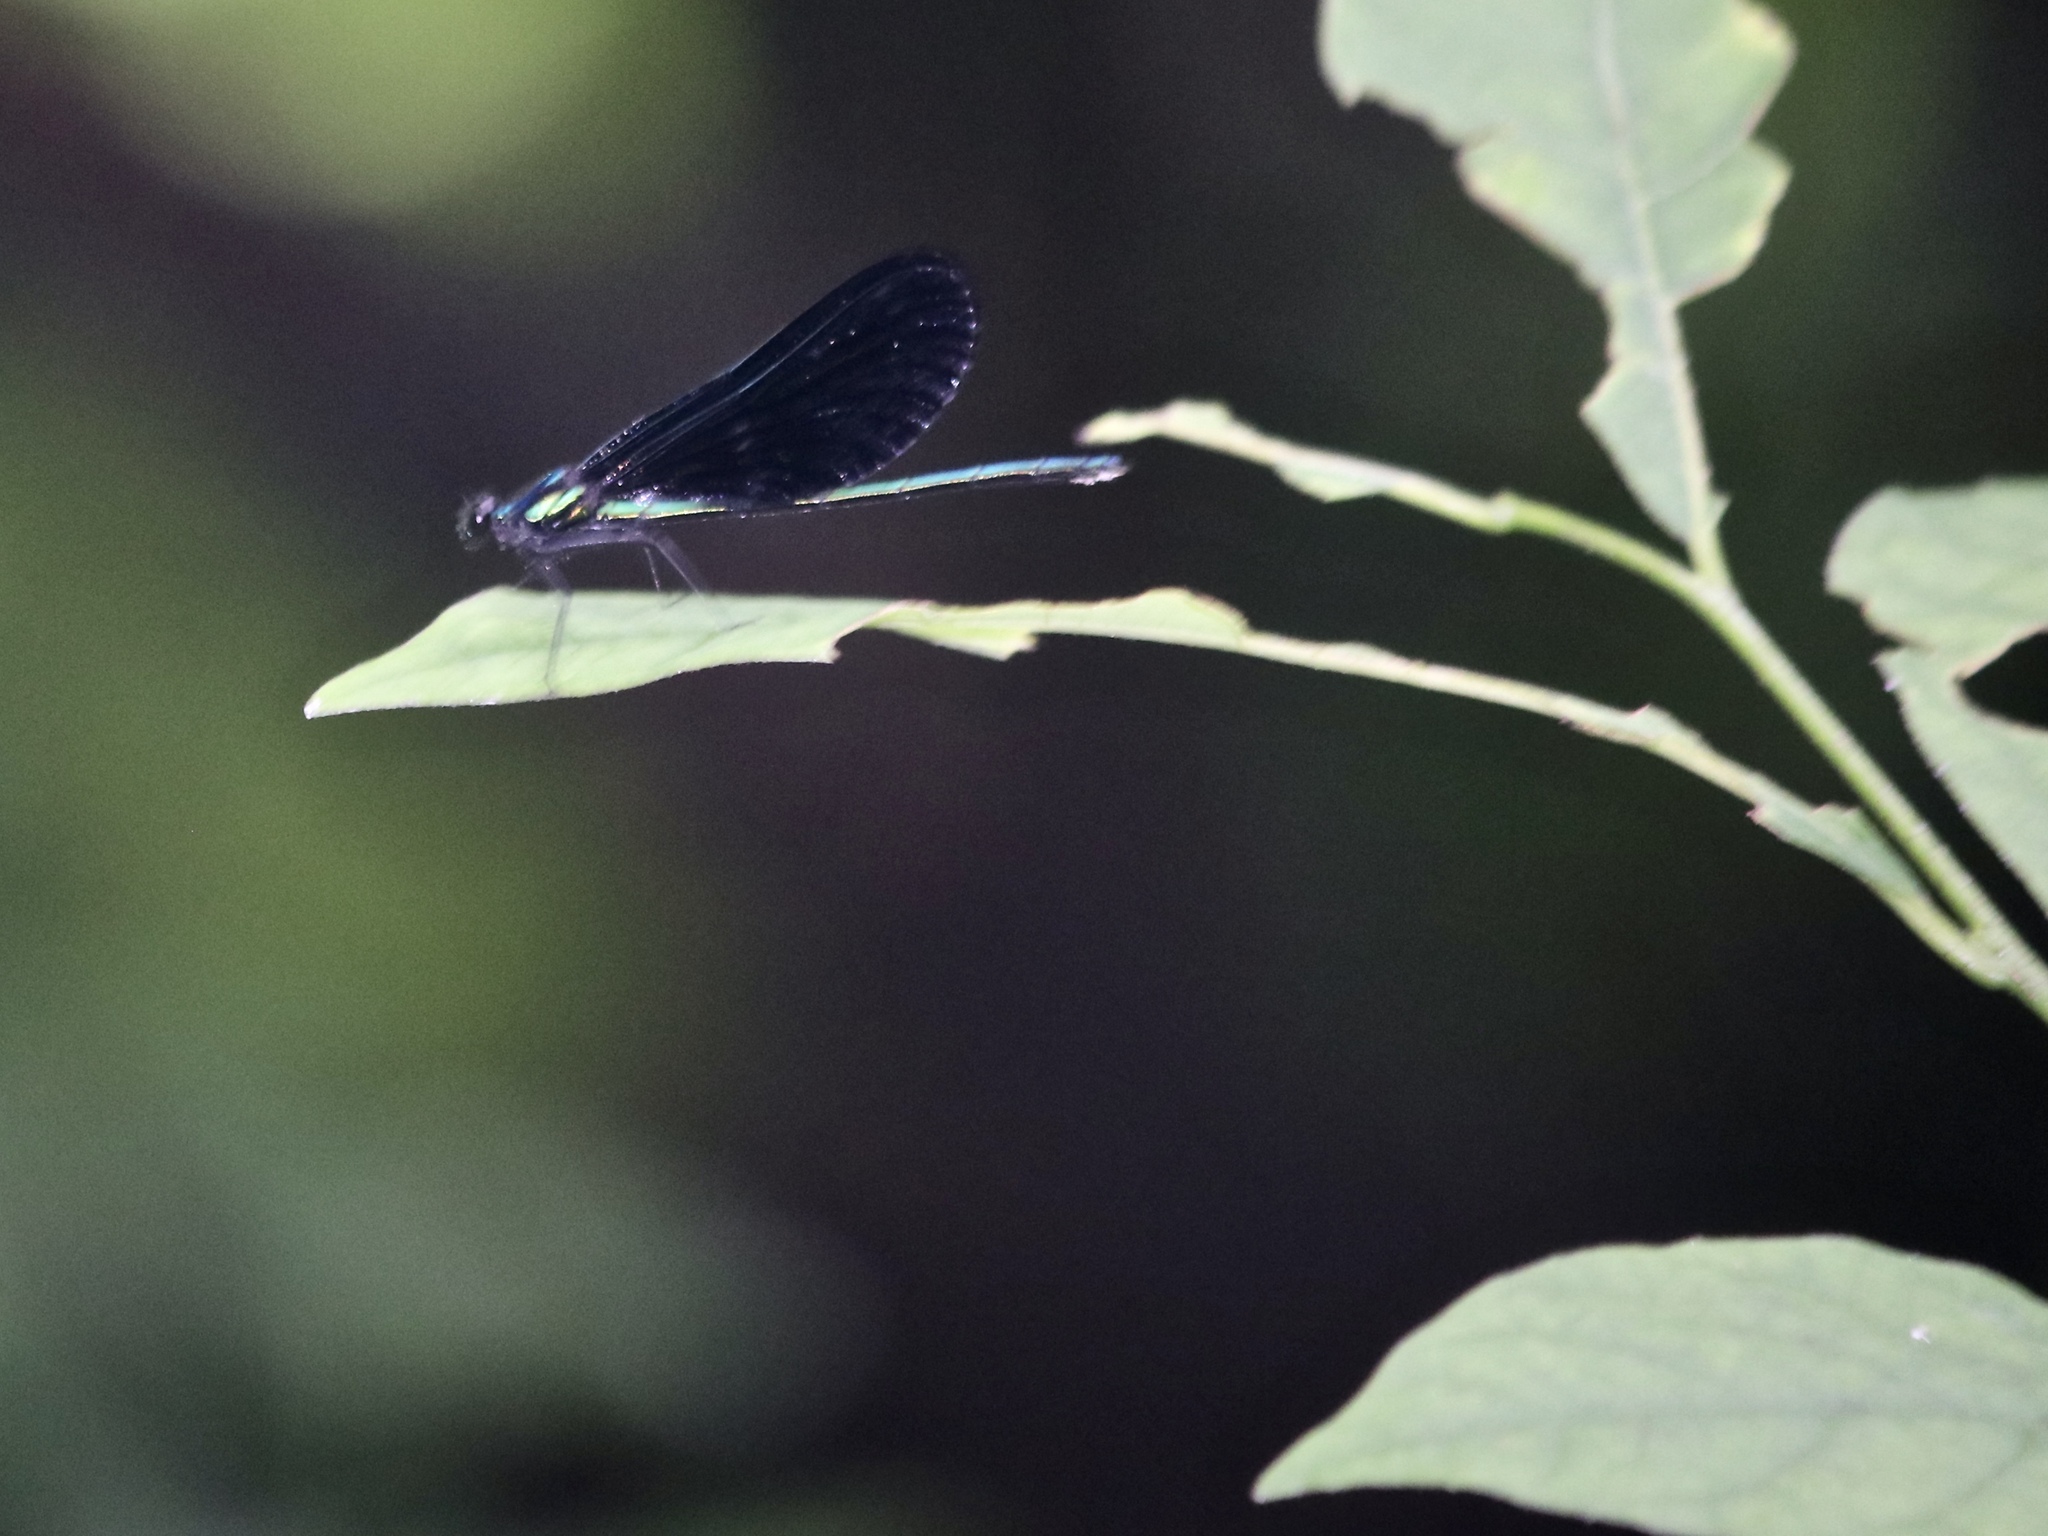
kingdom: Animalia
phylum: Arthropoda
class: Insecta
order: Odonata
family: Calopterygidae
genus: Calopteryx
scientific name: Calopteryx maculata
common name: Ebony jewelwing
